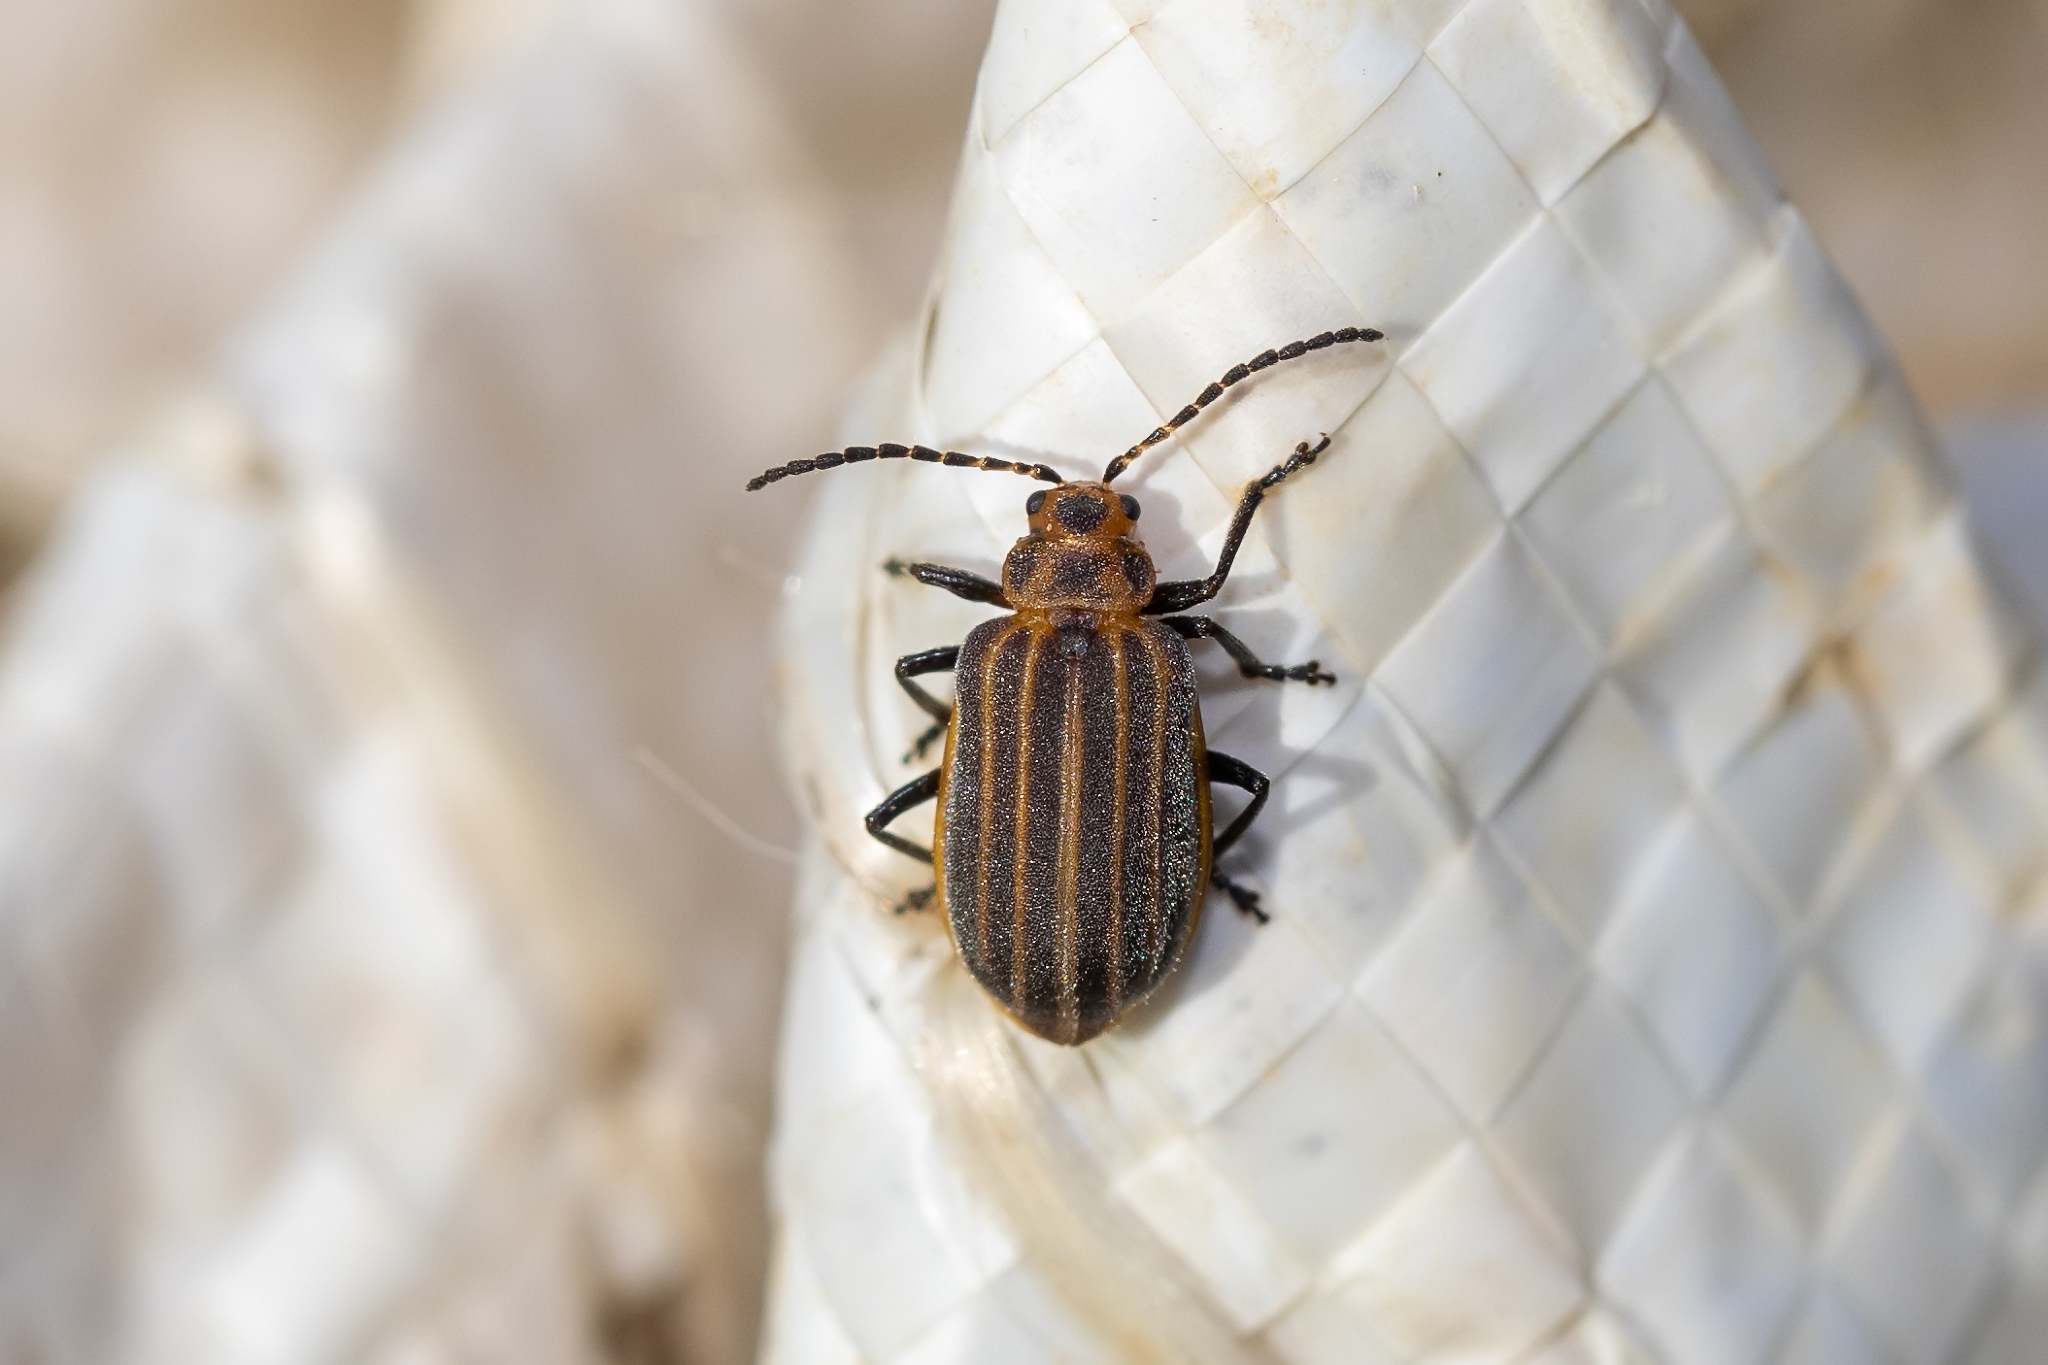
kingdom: Animalia
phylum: Arthropoda
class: Insecta
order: Coleoptera
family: Chrysomelidae
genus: Neolochmaea
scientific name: Neolochmaea dilatipennis
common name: Skeletonizing leaf beetle
